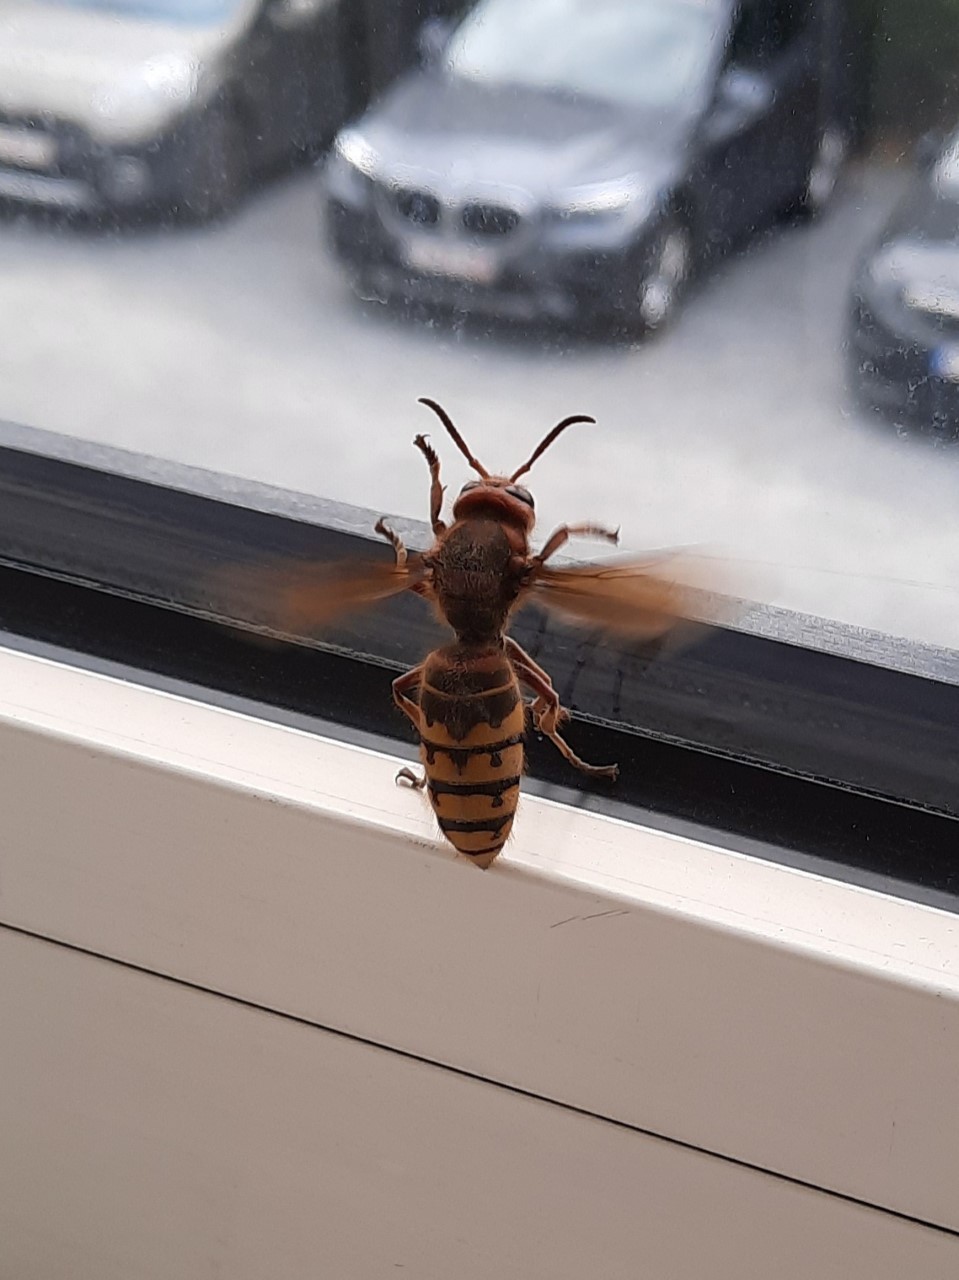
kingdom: Animalia
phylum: Arthropoda
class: Insecta
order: Hymenoptera
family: Vespidae
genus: Vespa
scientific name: Vespa crabro
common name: Hornet
